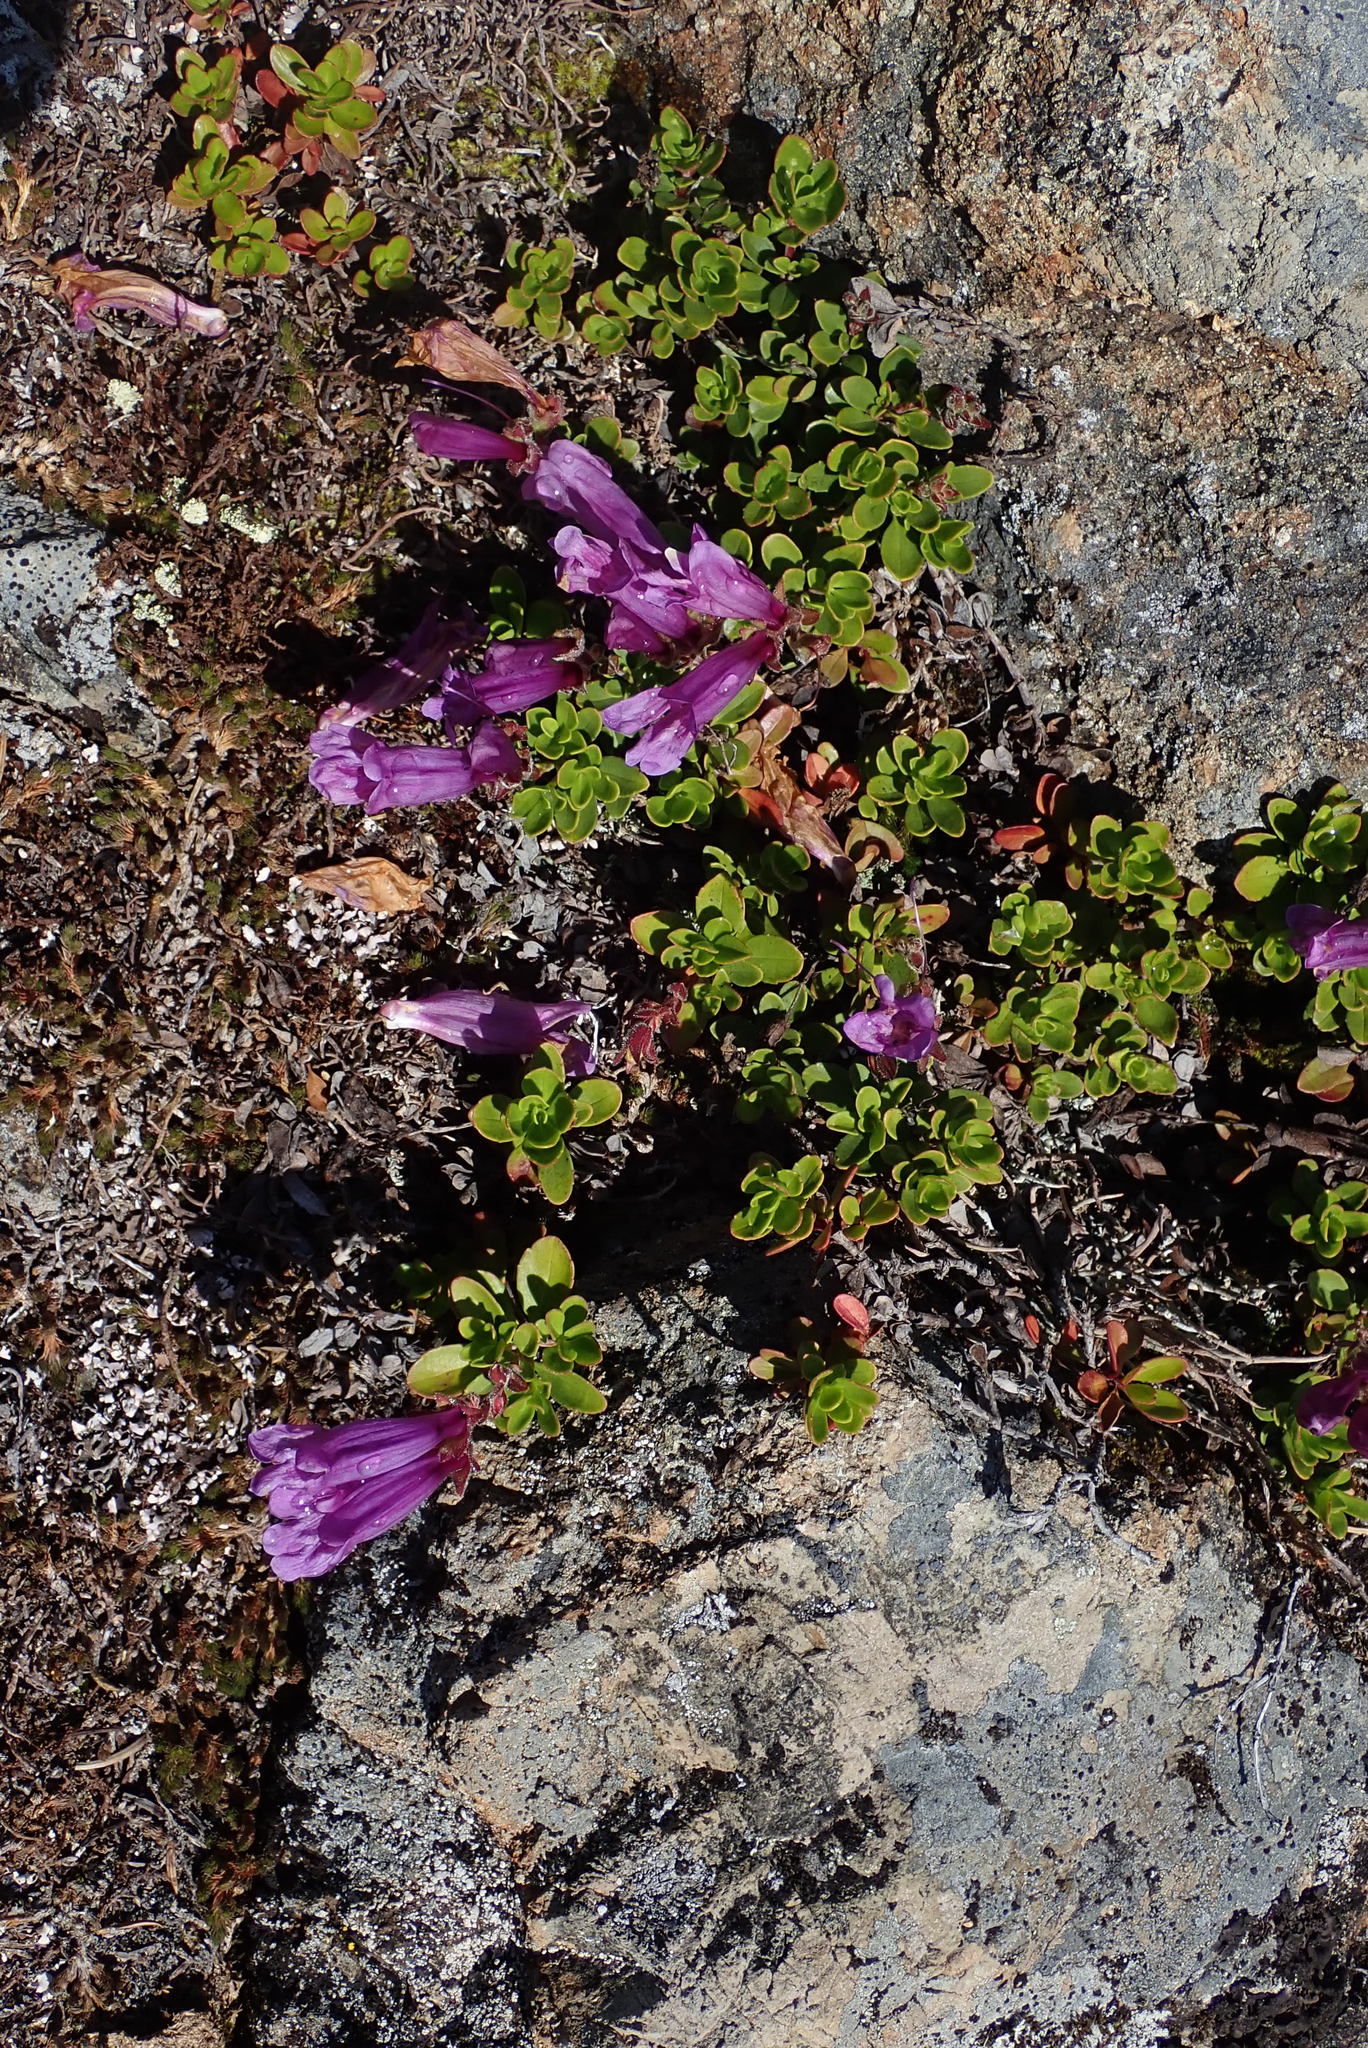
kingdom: Plantae
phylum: Tracheophyta
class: Magnoliopsida
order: Lamiales
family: Plantaginaceae
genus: Penstemon
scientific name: Penstemon davidsonii
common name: Davidson's penstemon
